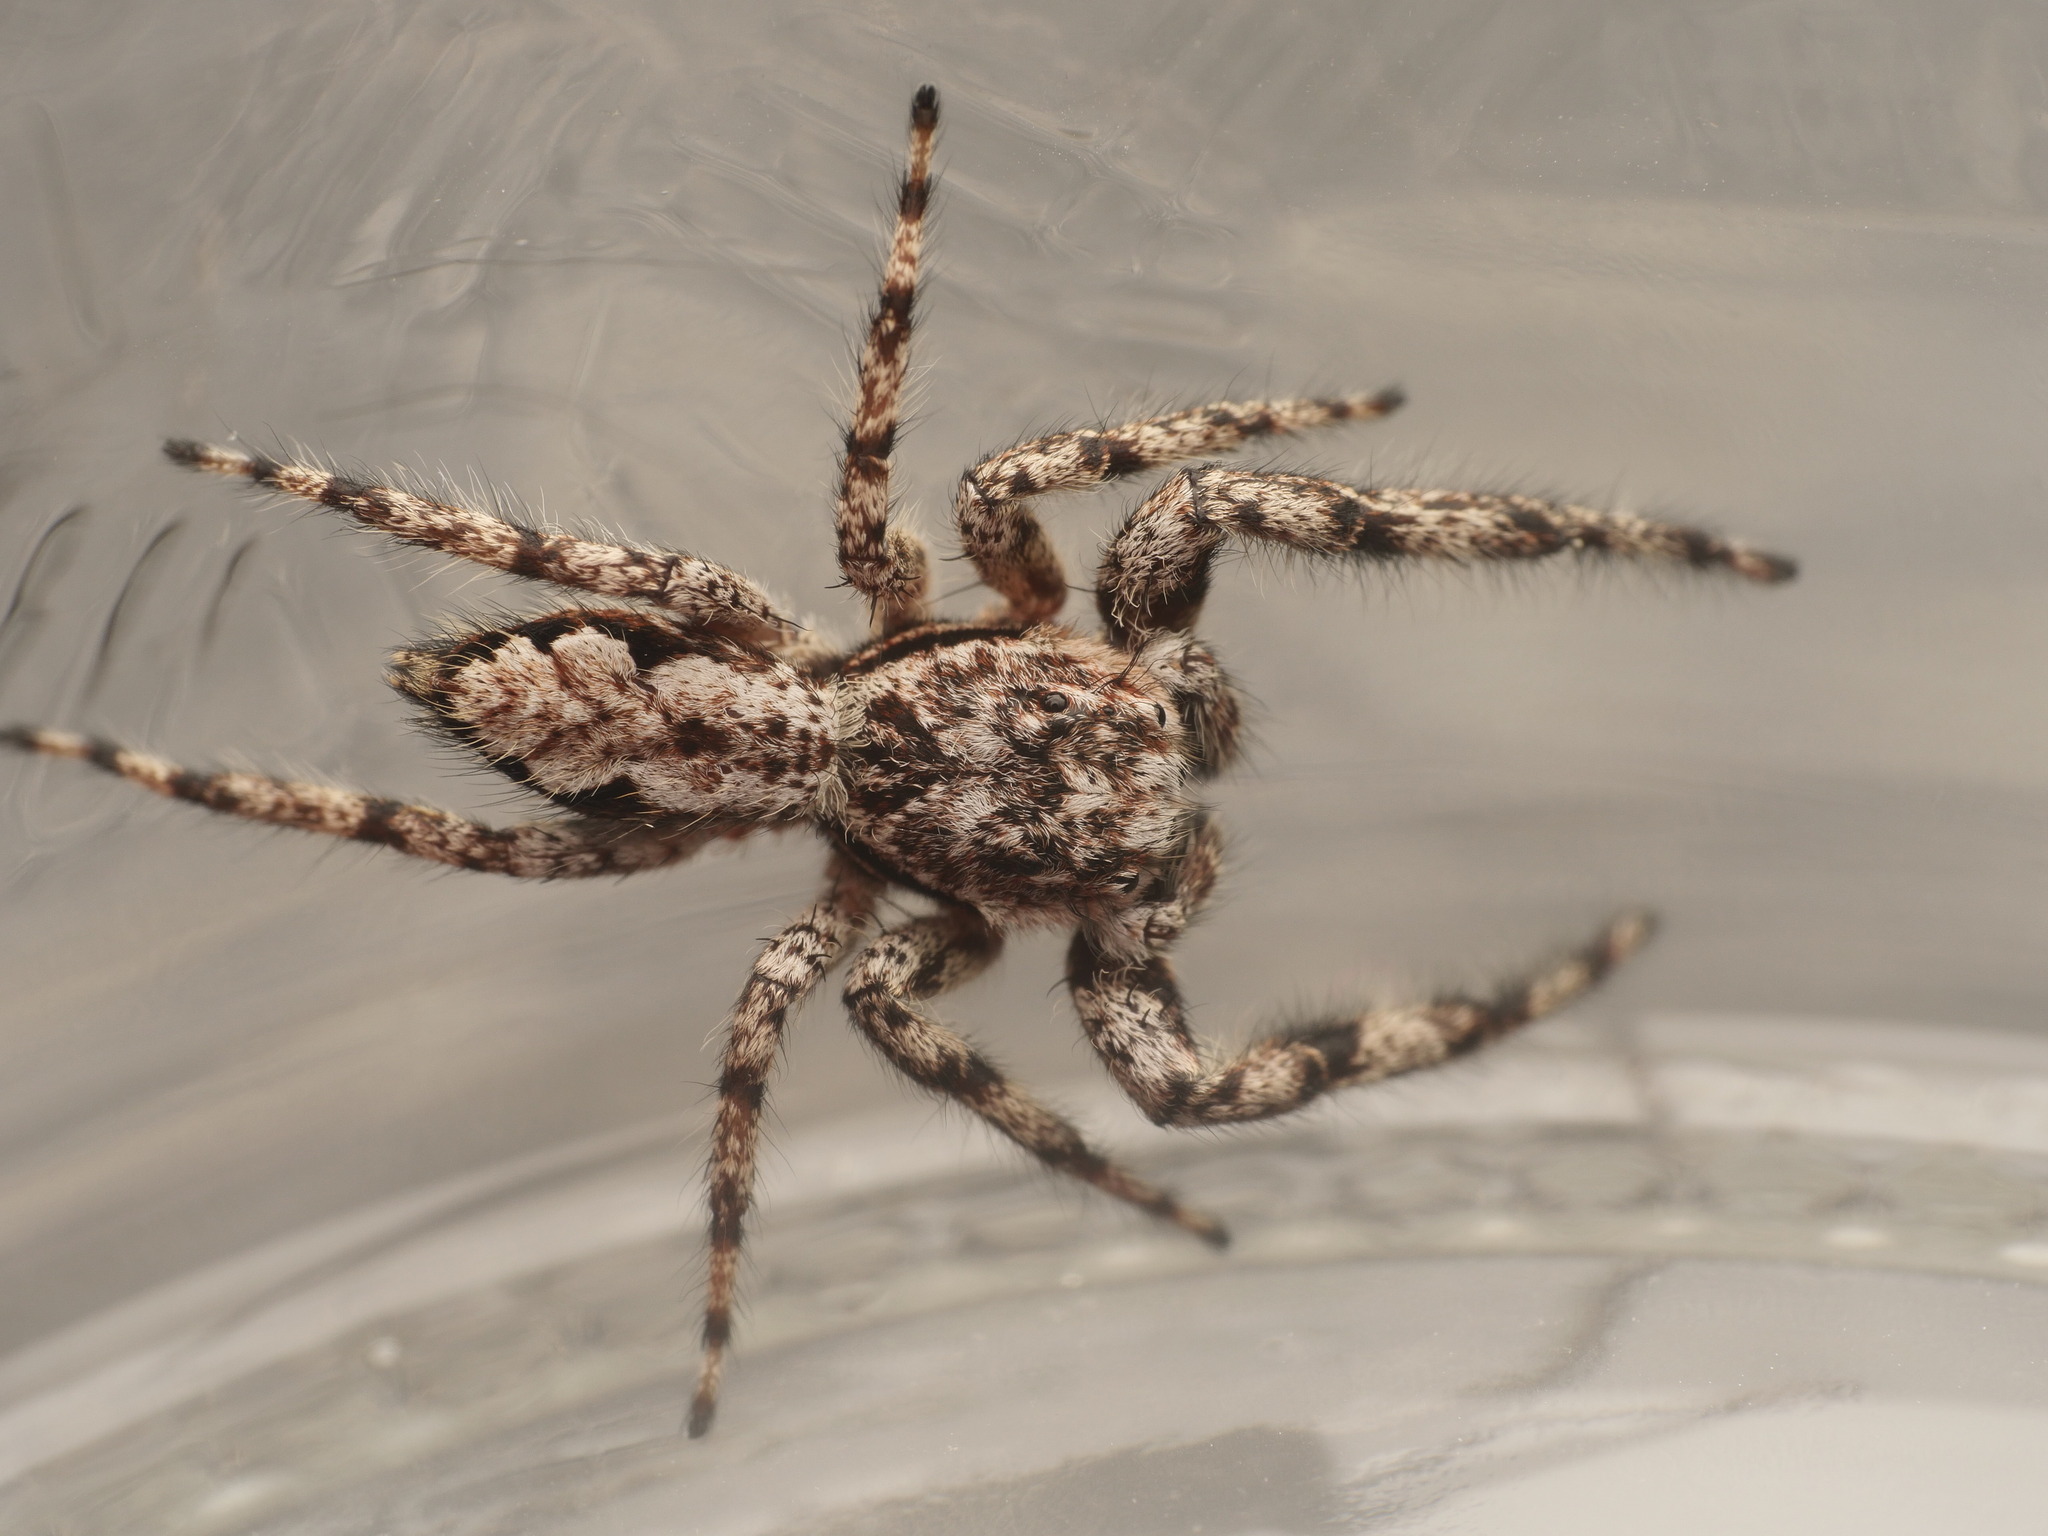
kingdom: Animalia
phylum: Arthropoda
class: Arachnida
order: Araneae
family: Salticidae
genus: Platycryptus
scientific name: Platycryptus undatus
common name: Tan jumping spider
